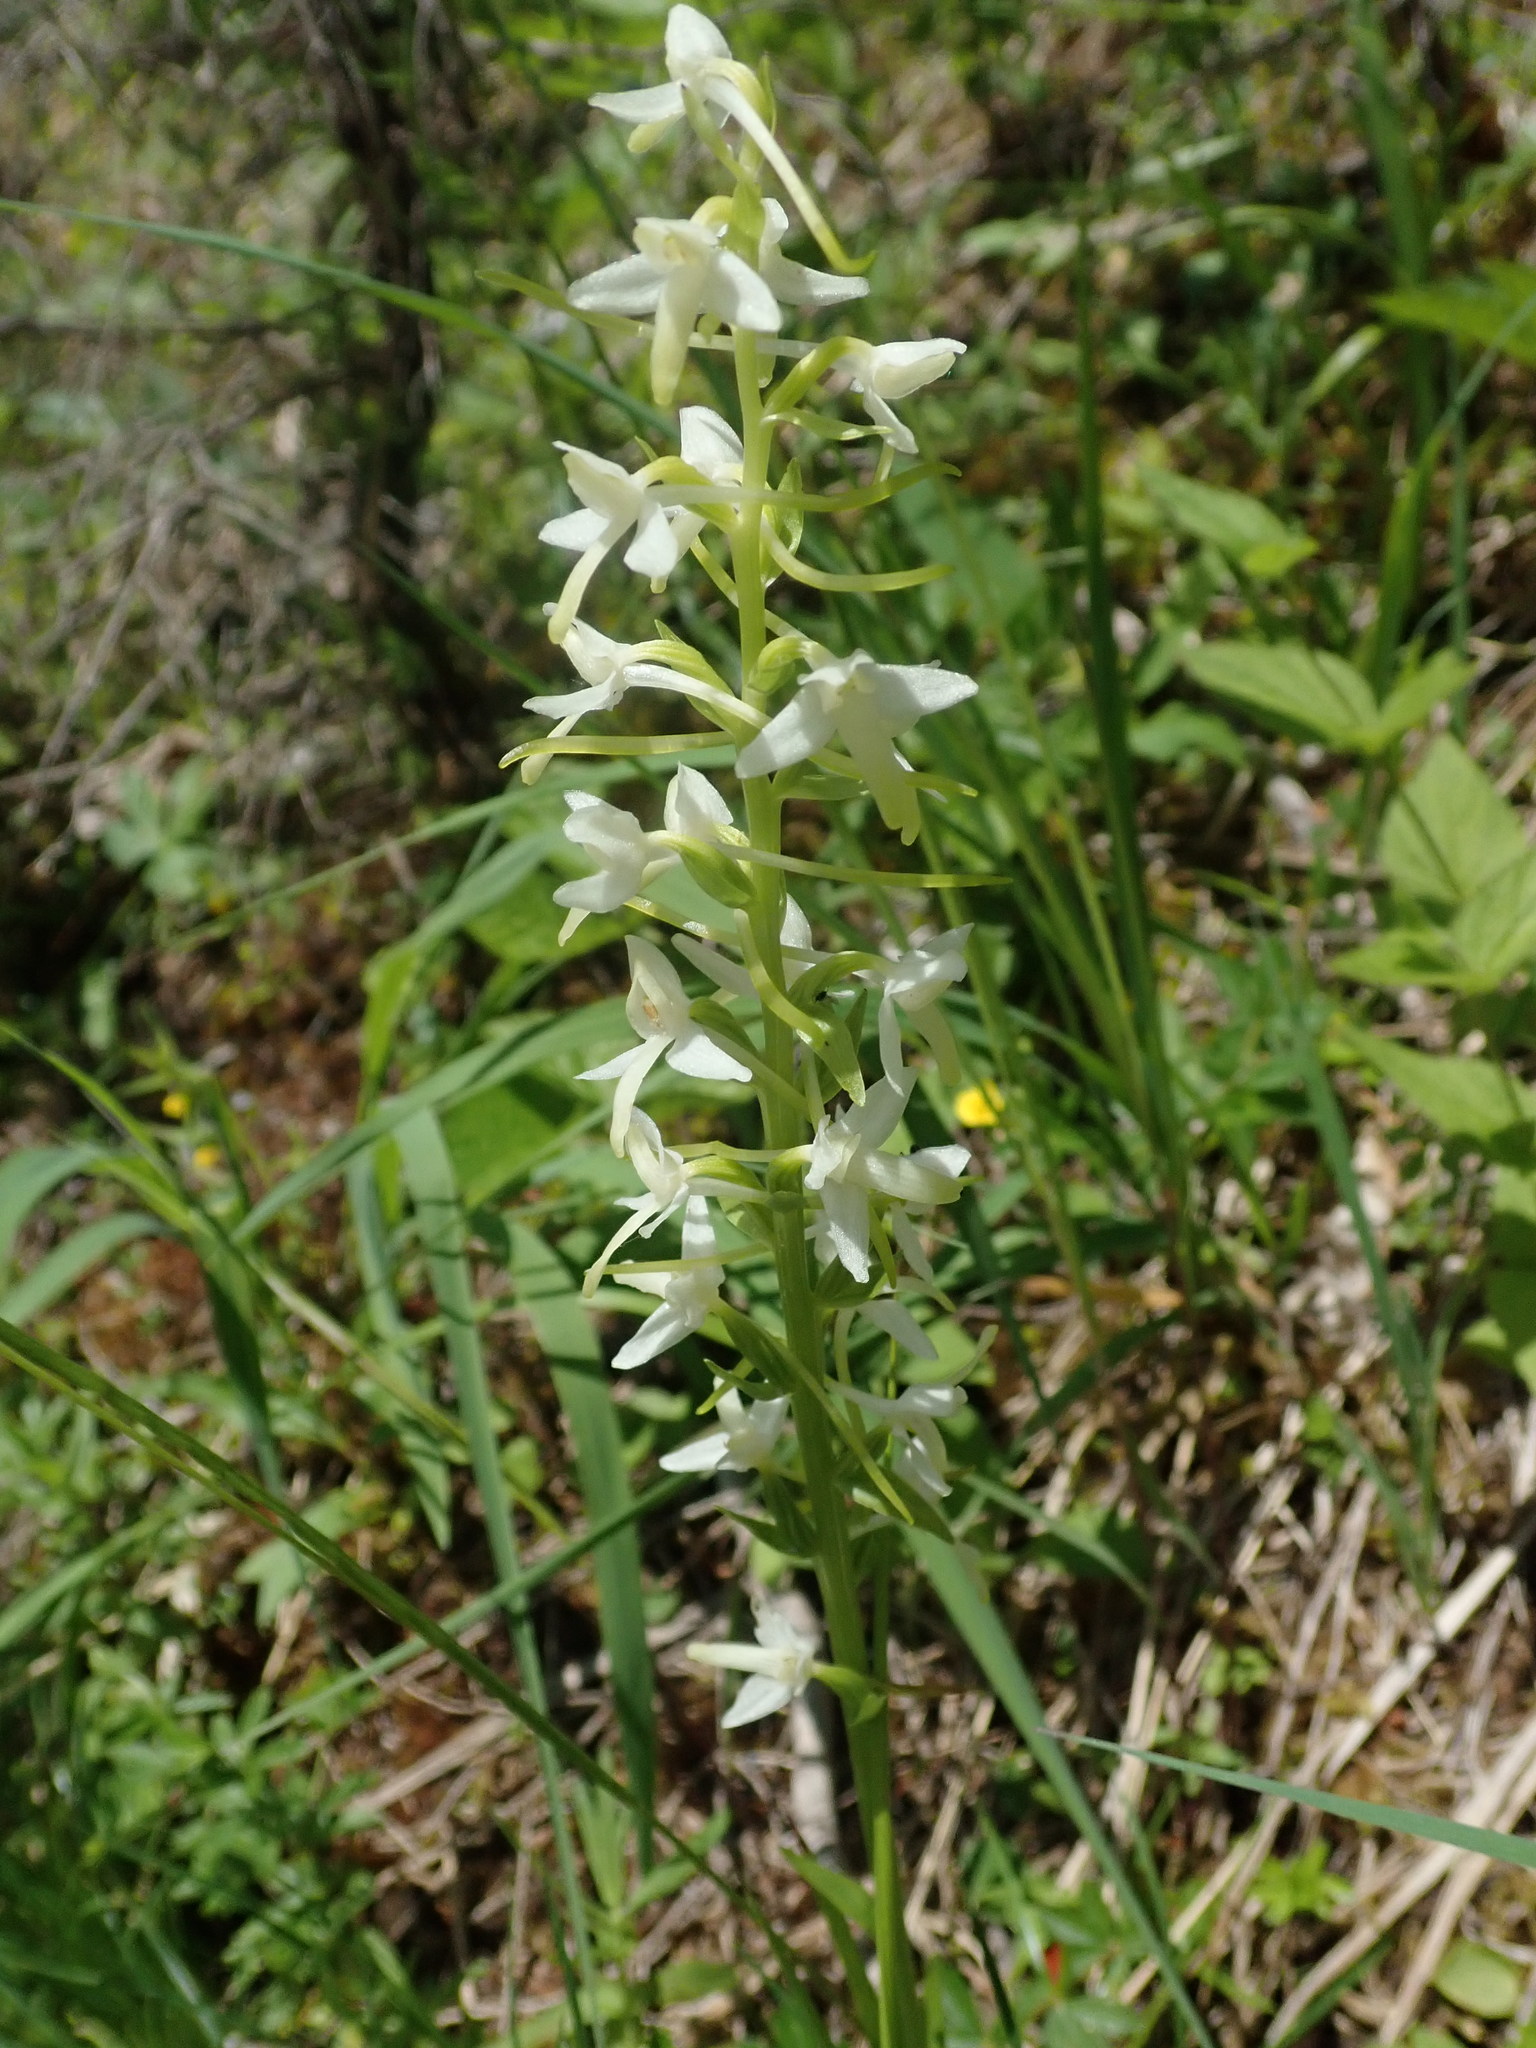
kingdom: Plantae
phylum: Tracheophyta
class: Liliopsida
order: Asparagales
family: Orchidaceae
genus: Platanthera
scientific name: Platanthera bifolia
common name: Lesser butterfly-orchid
